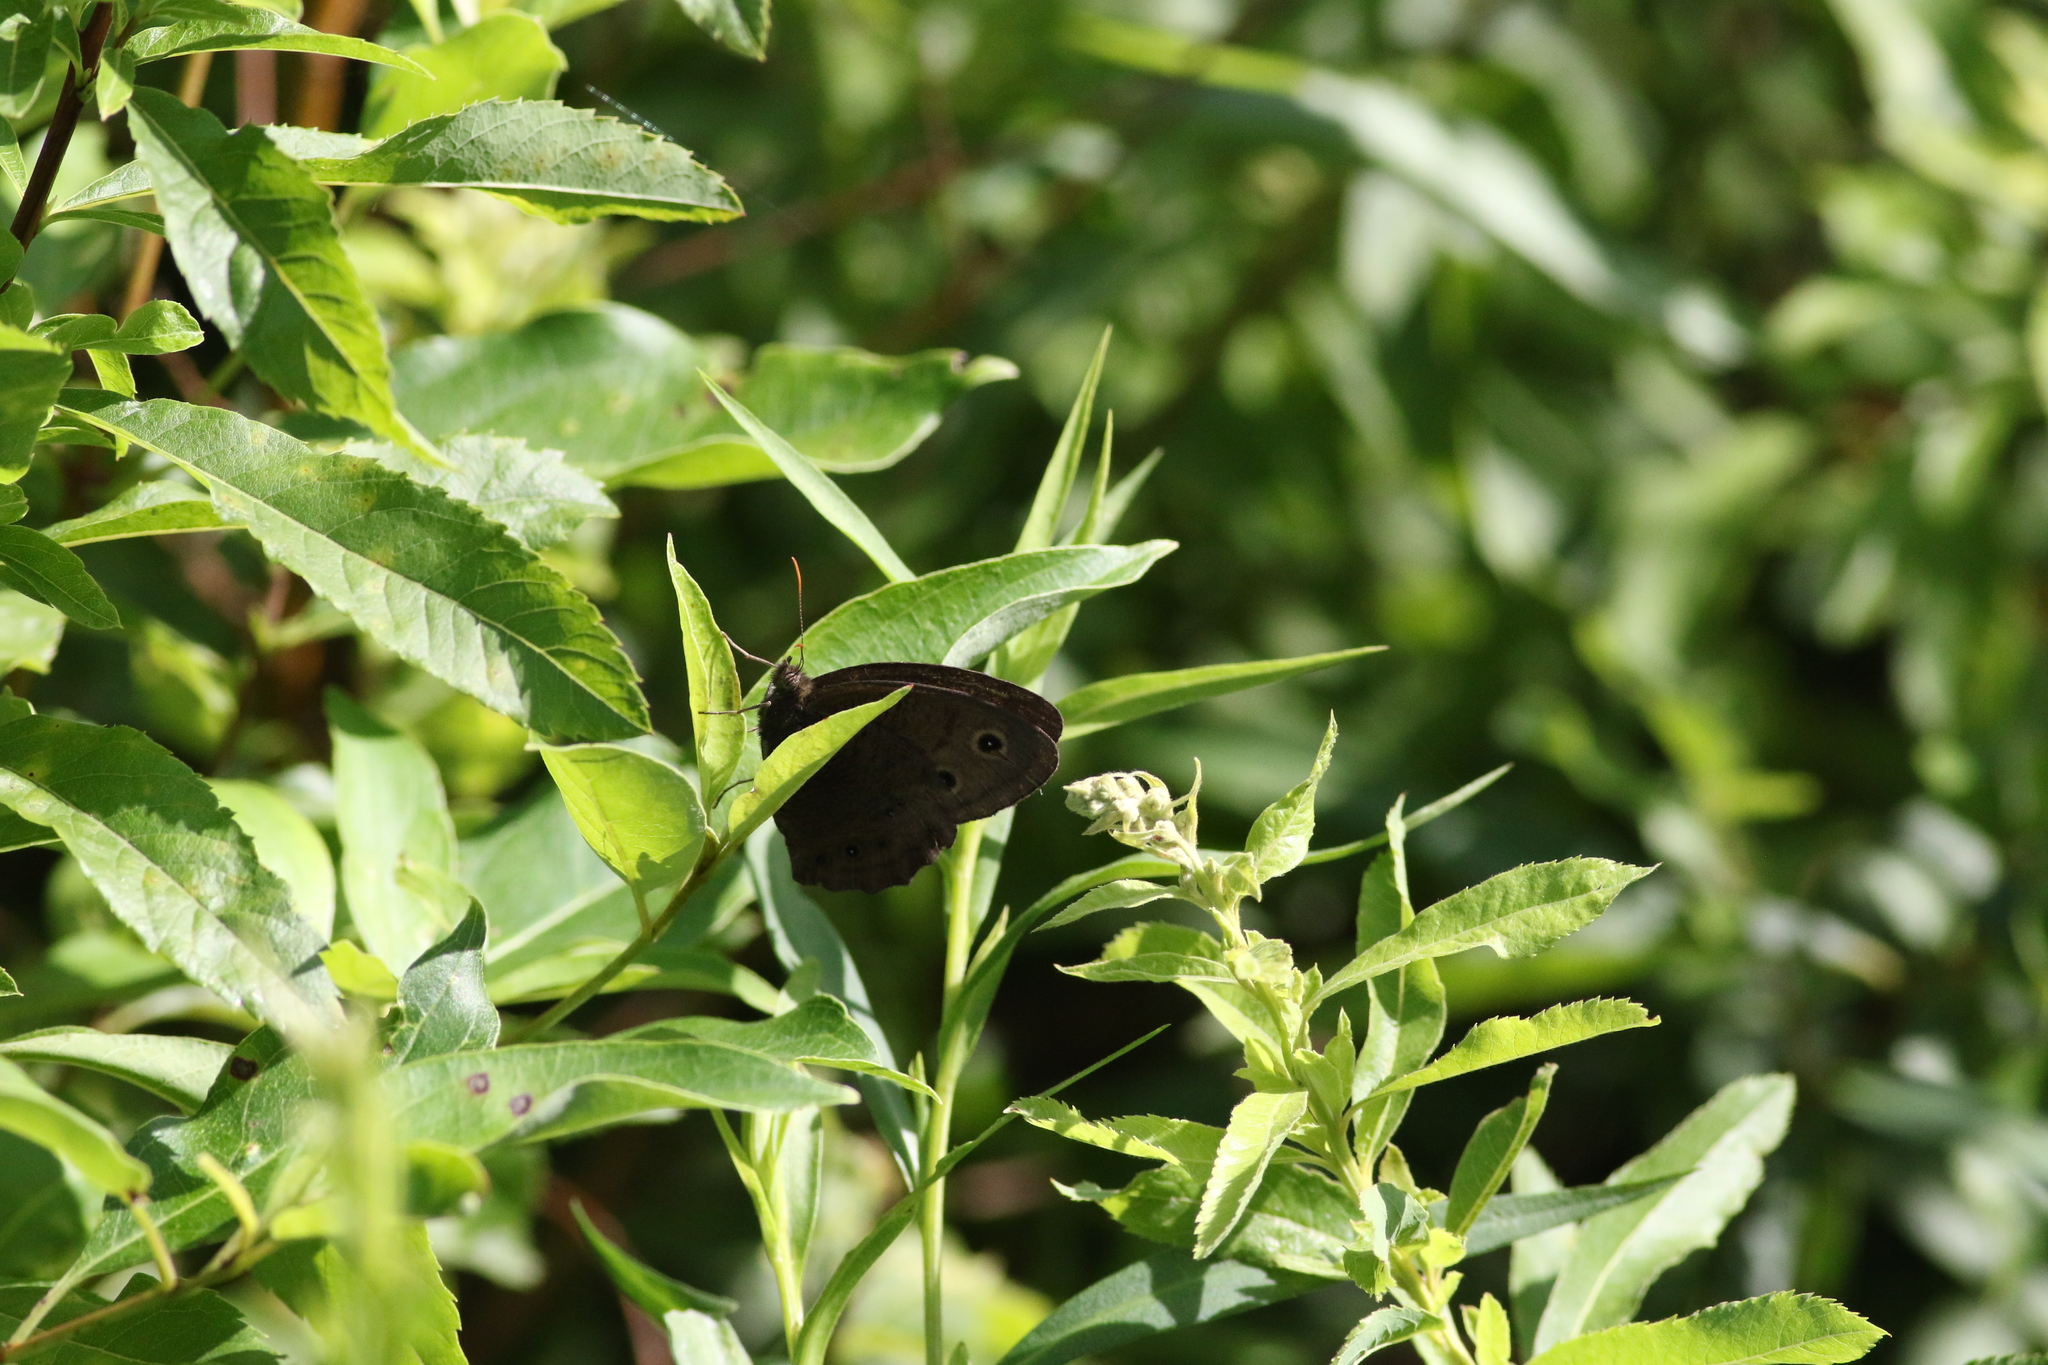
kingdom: Animalia
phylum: Arthropoda
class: Insecta
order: Lepidoptera
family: Nymphalidae
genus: Cercyonis
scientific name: Cercyonis pegala
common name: Common wood-nymph
